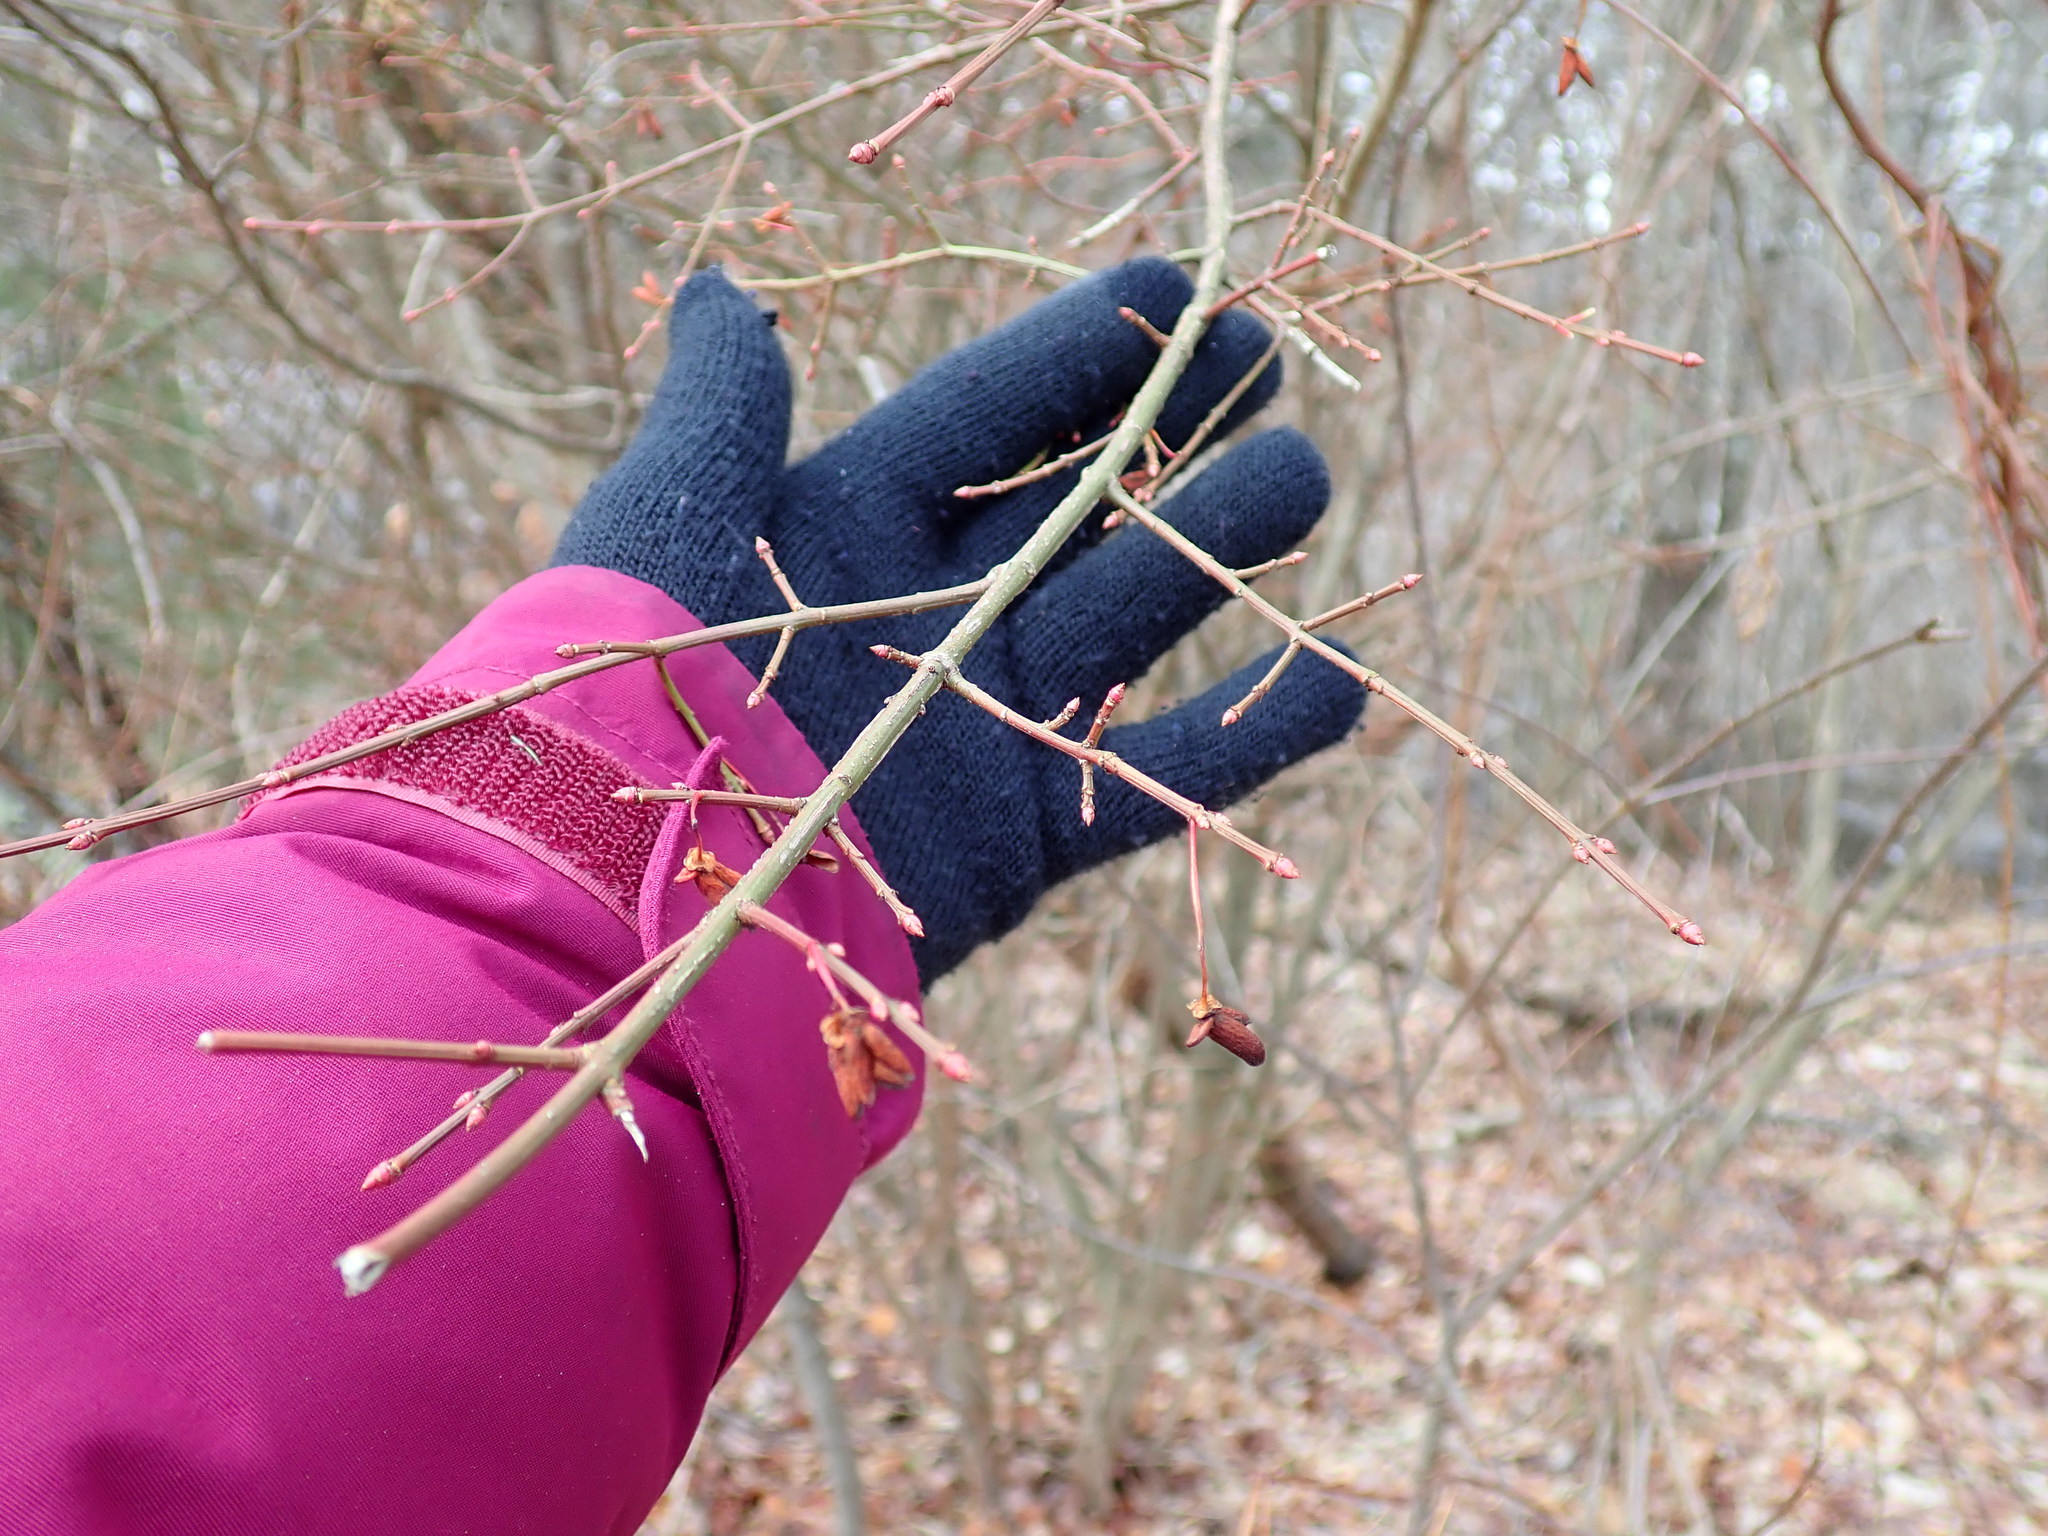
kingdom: Plantae
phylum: Tracheophyta
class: Magnoliopsida
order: Celastrales
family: Celastraceae
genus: Euonymus
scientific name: Euonymus alatus
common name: Winged euonymus
